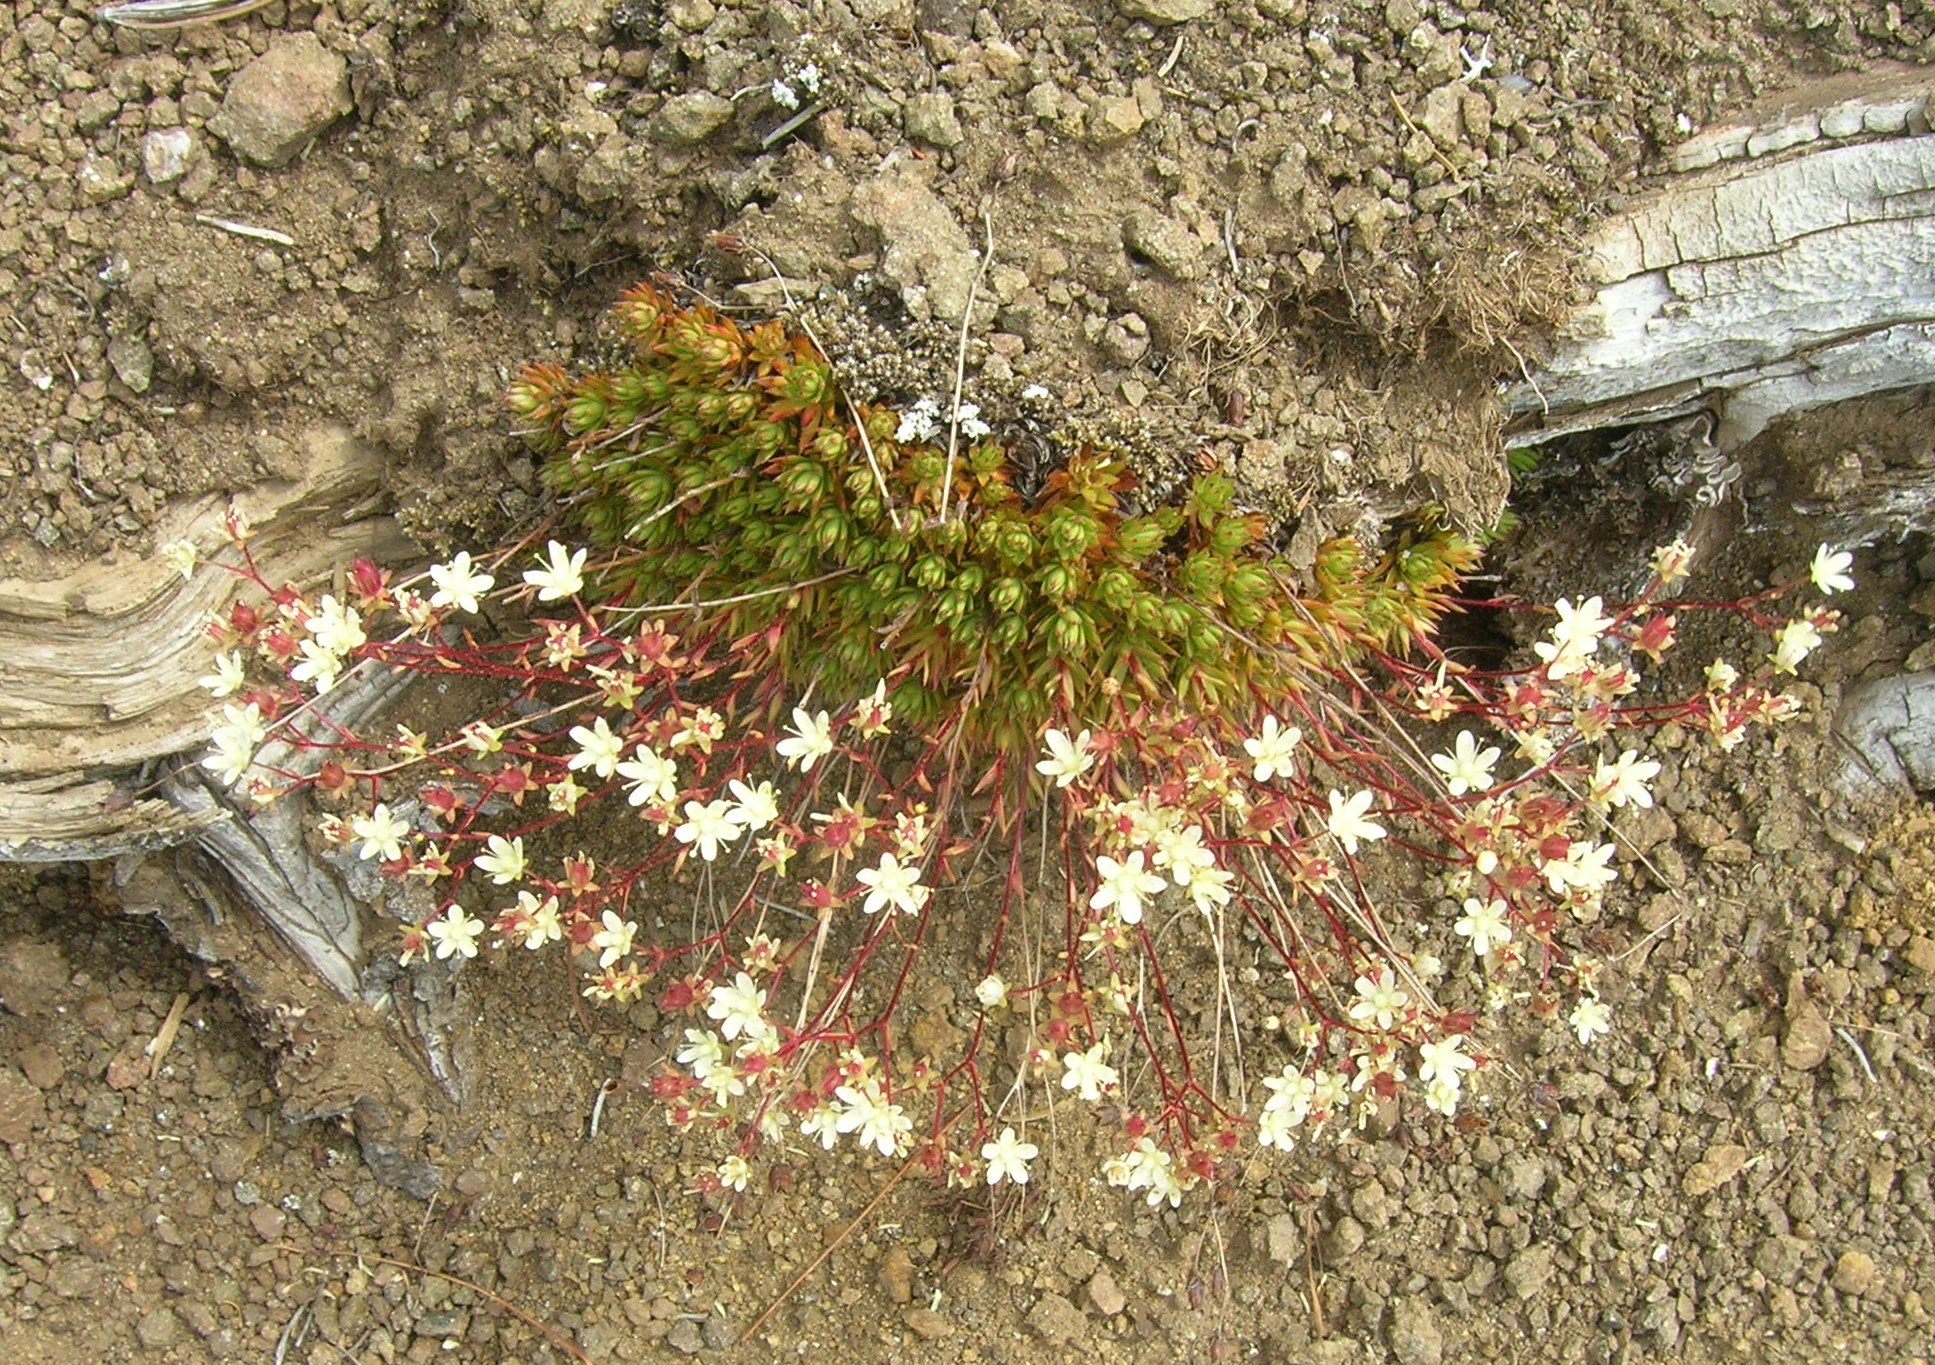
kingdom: Plantae
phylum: Tracheophyta
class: Magnoliopsida
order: Saxifragales
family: Saxifragaceae
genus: Saxifraga
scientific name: Saxifraga bronchialis
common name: Matted saxifrage
